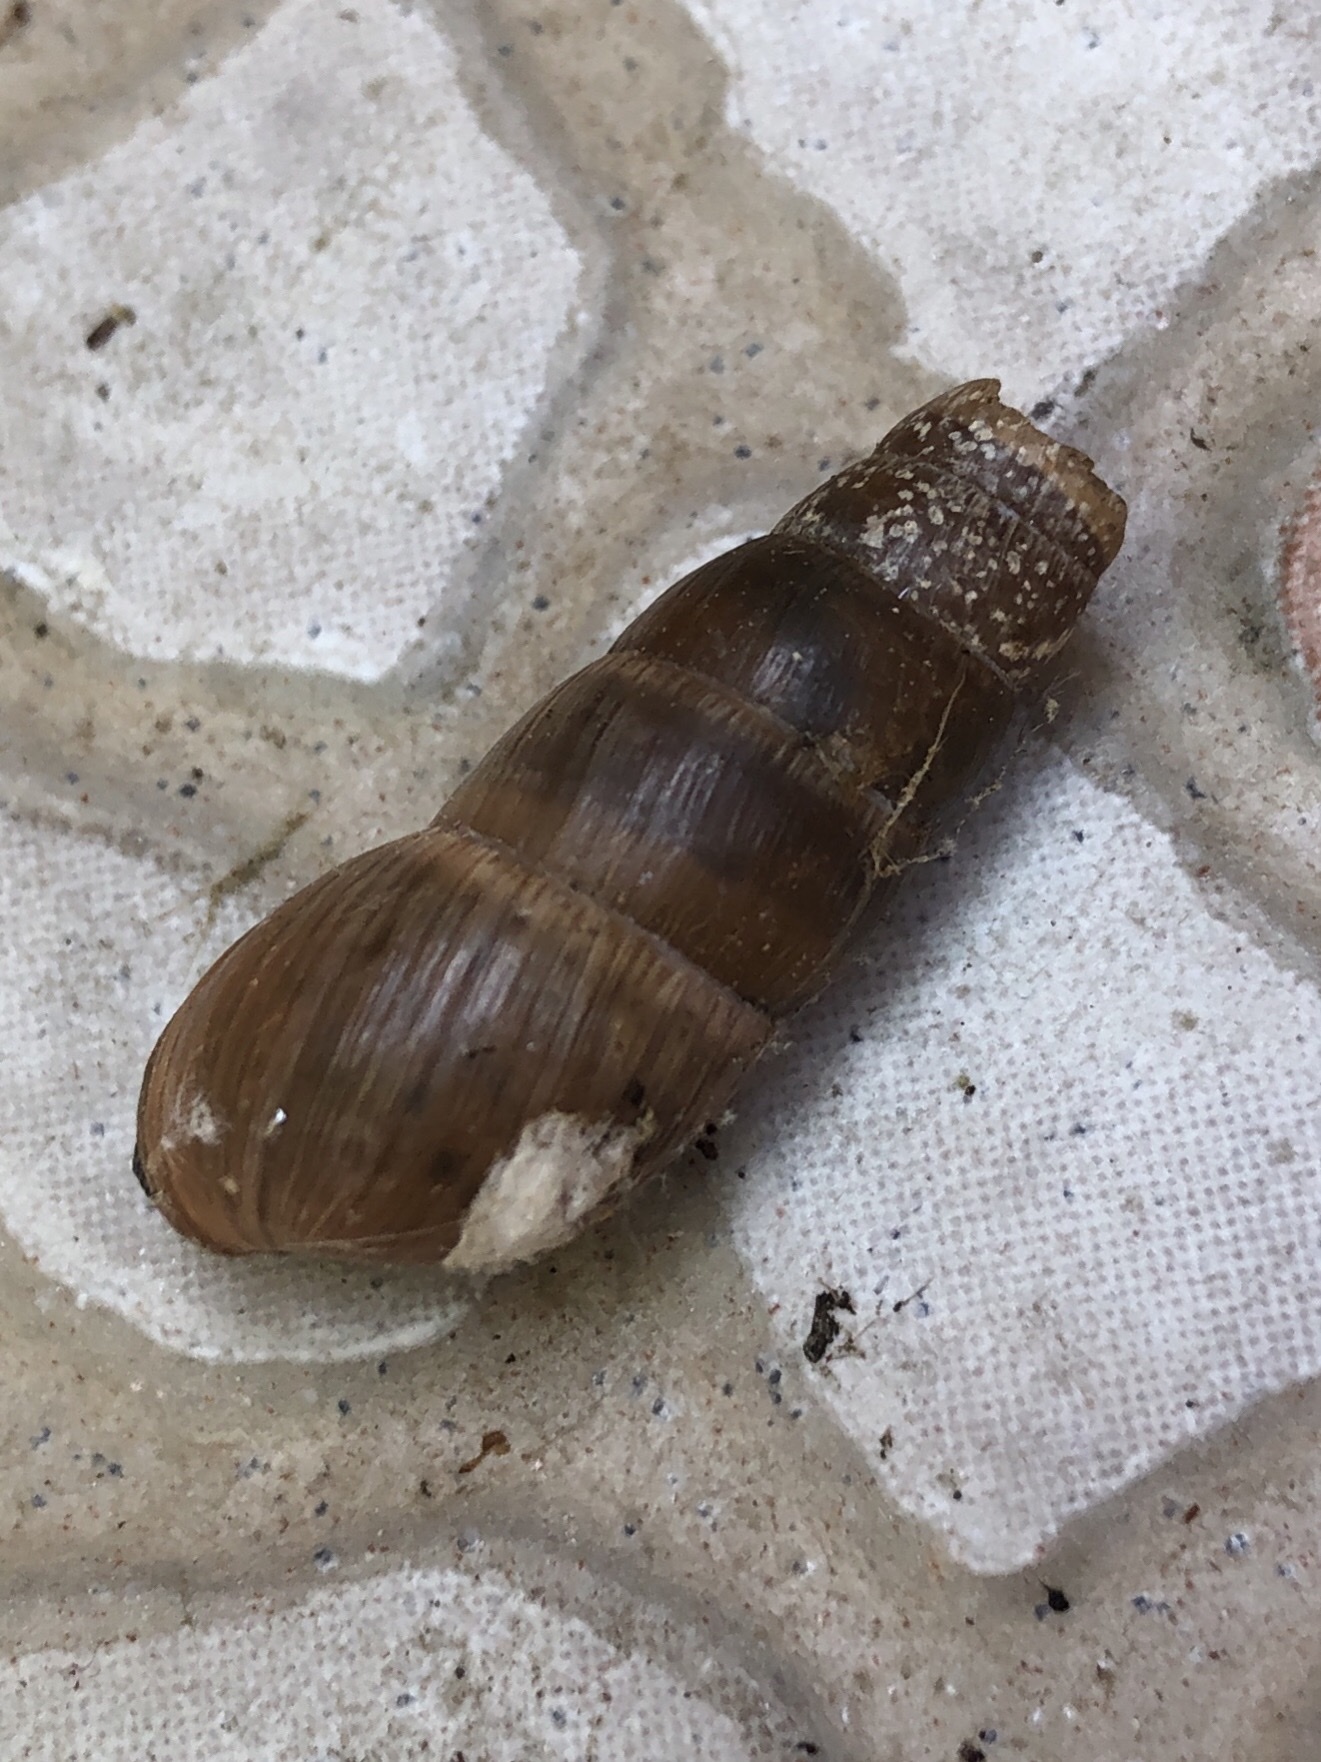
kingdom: Animalia
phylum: Mollusca
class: Gastropoda
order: Stylommatophora
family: Achatinidae
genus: Rumina
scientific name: Rumina decollata
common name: Decollate snail
